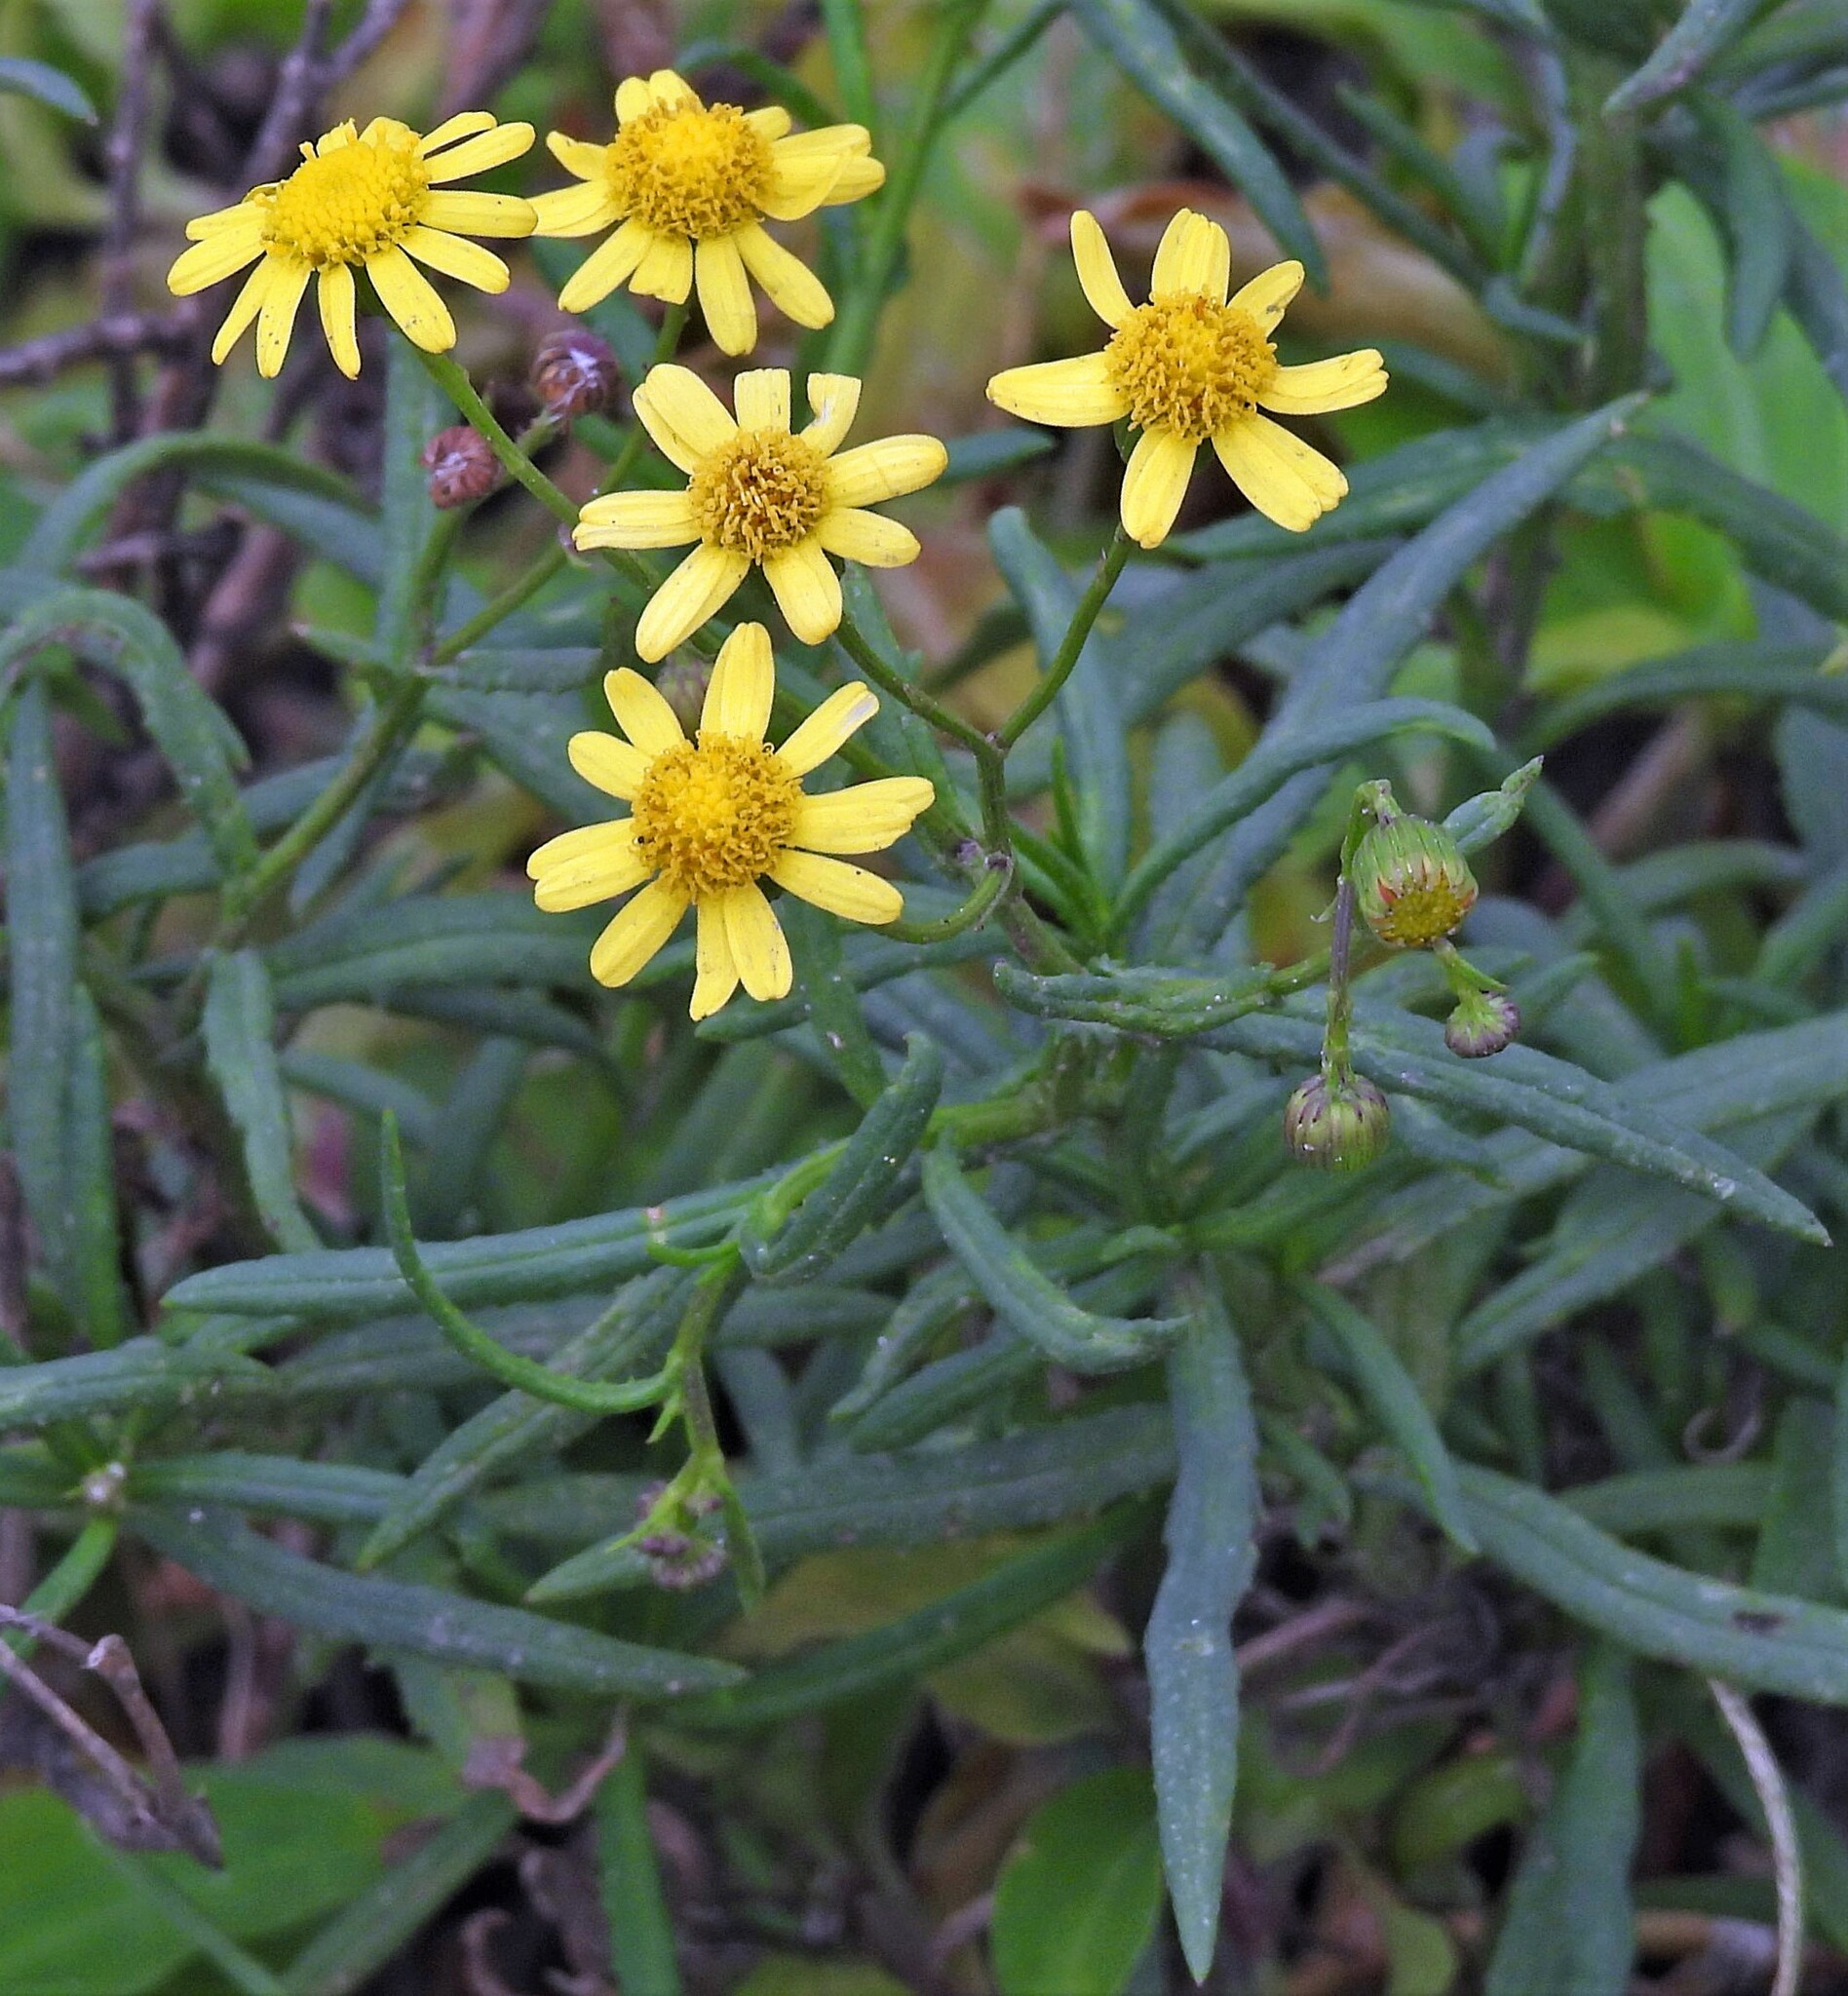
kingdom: Plantae
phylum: Tracheophyta
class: Magnoliopsida
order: Asterales
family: Asteraceae
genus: Senecio
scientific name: Senecio madagascariensis
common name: Madagascar ragwort
